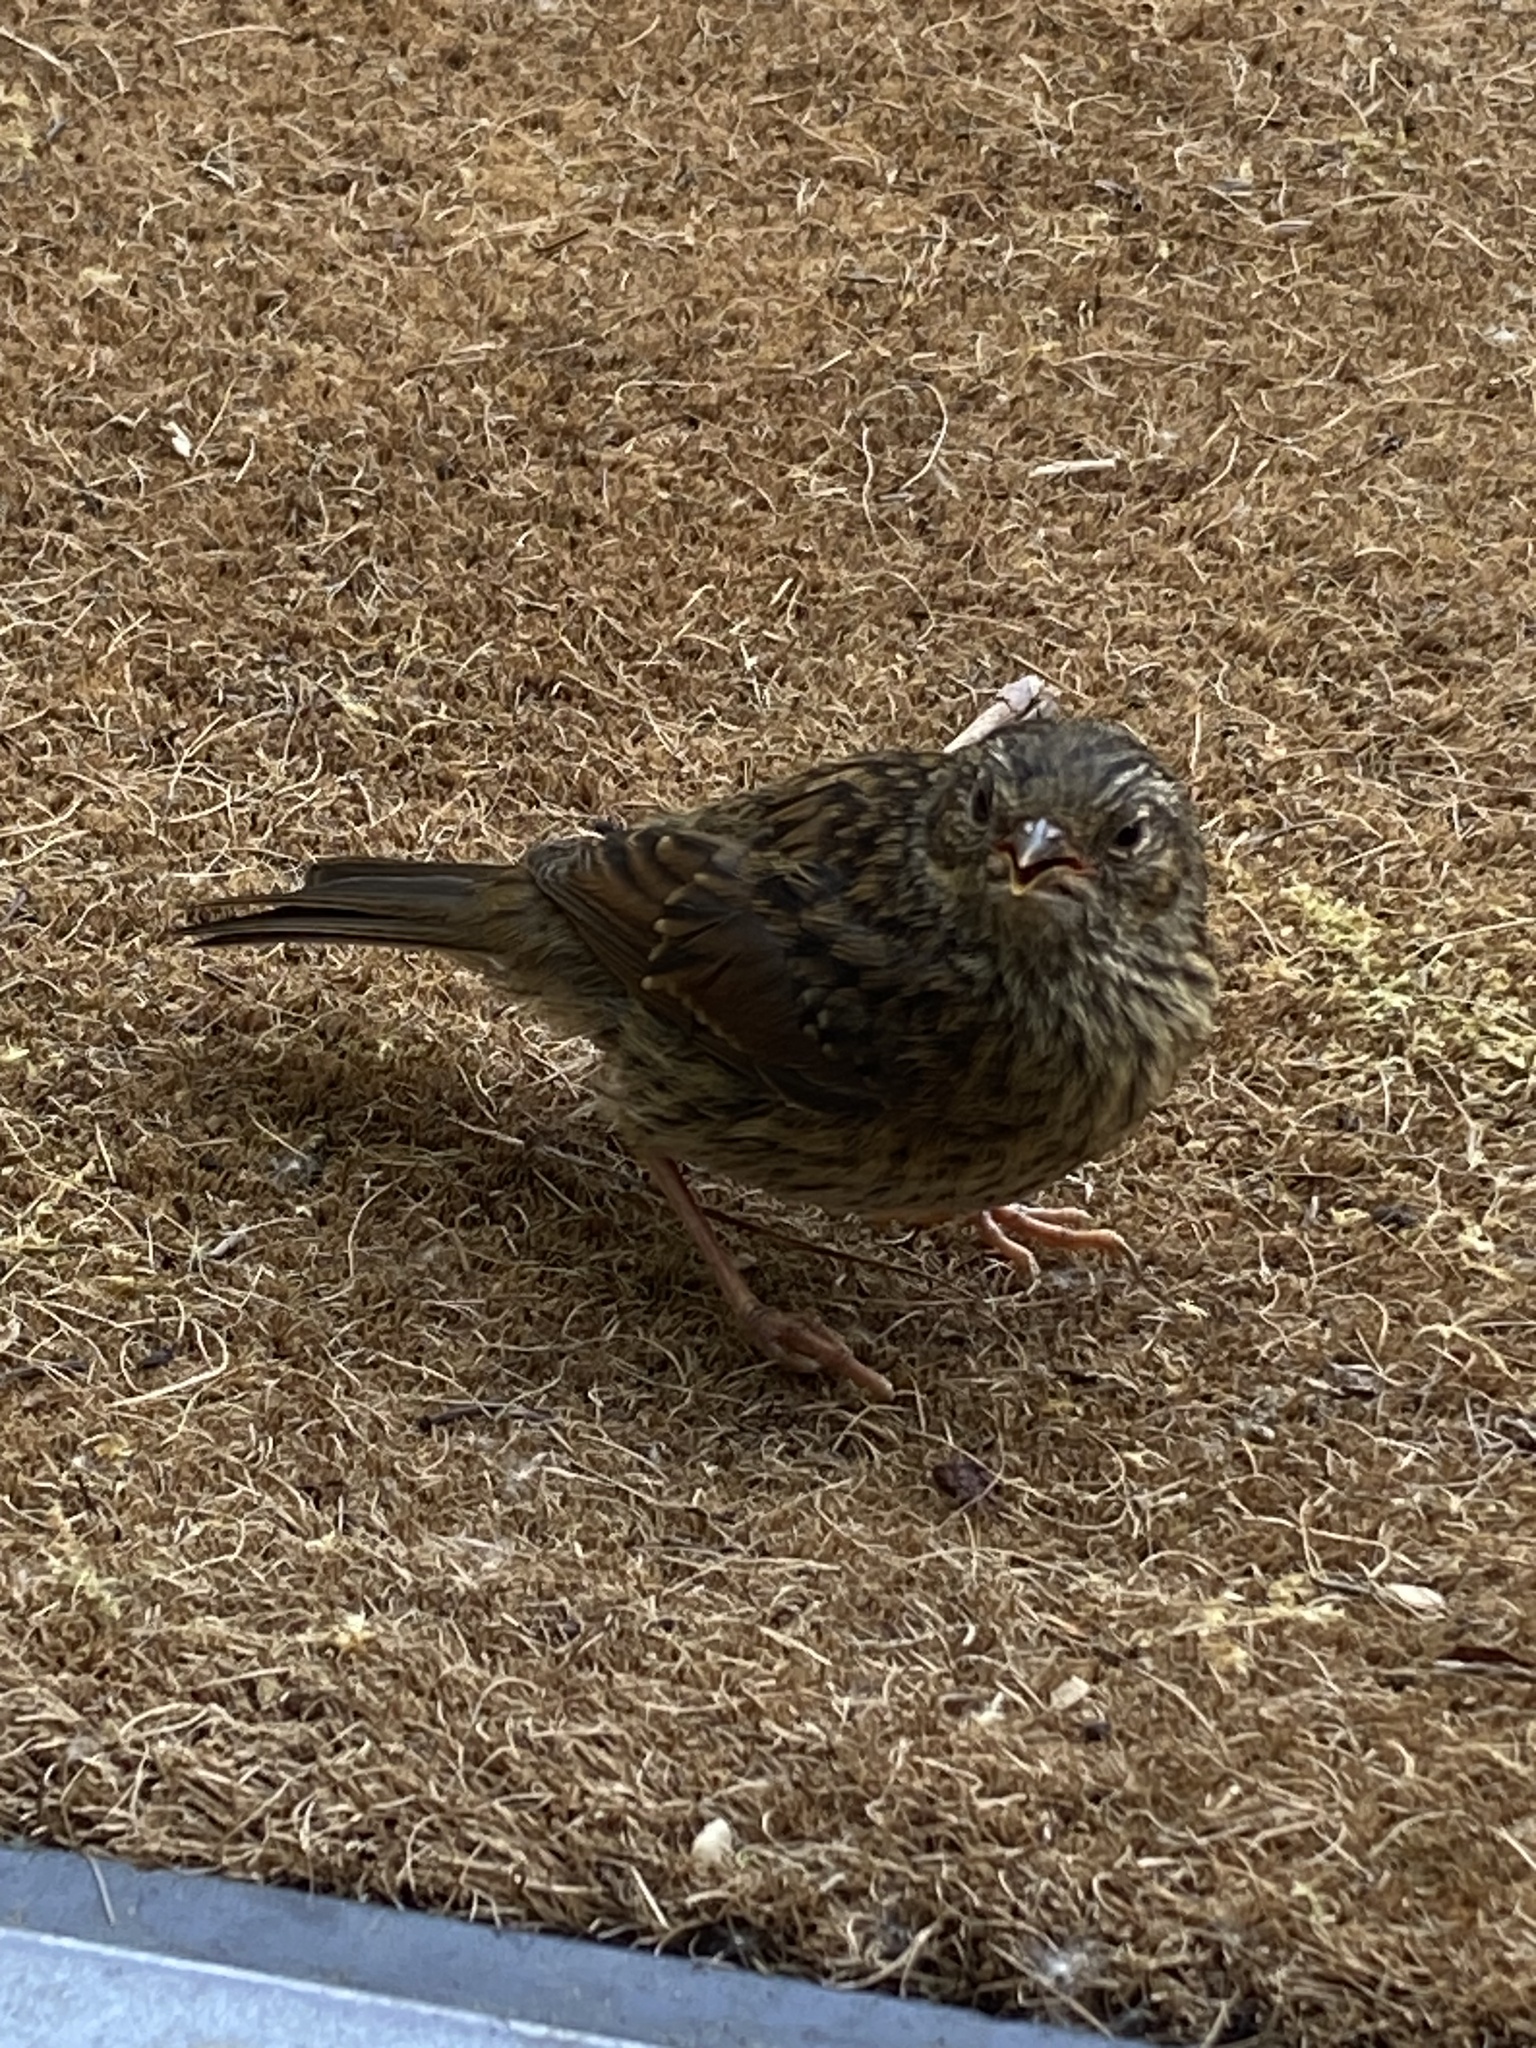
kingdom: Animalia
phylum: Chordata
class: Aves
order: Passeriformes
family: Prunellidae
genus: Prunella
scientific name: Prunella modularis
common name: Dunnock
